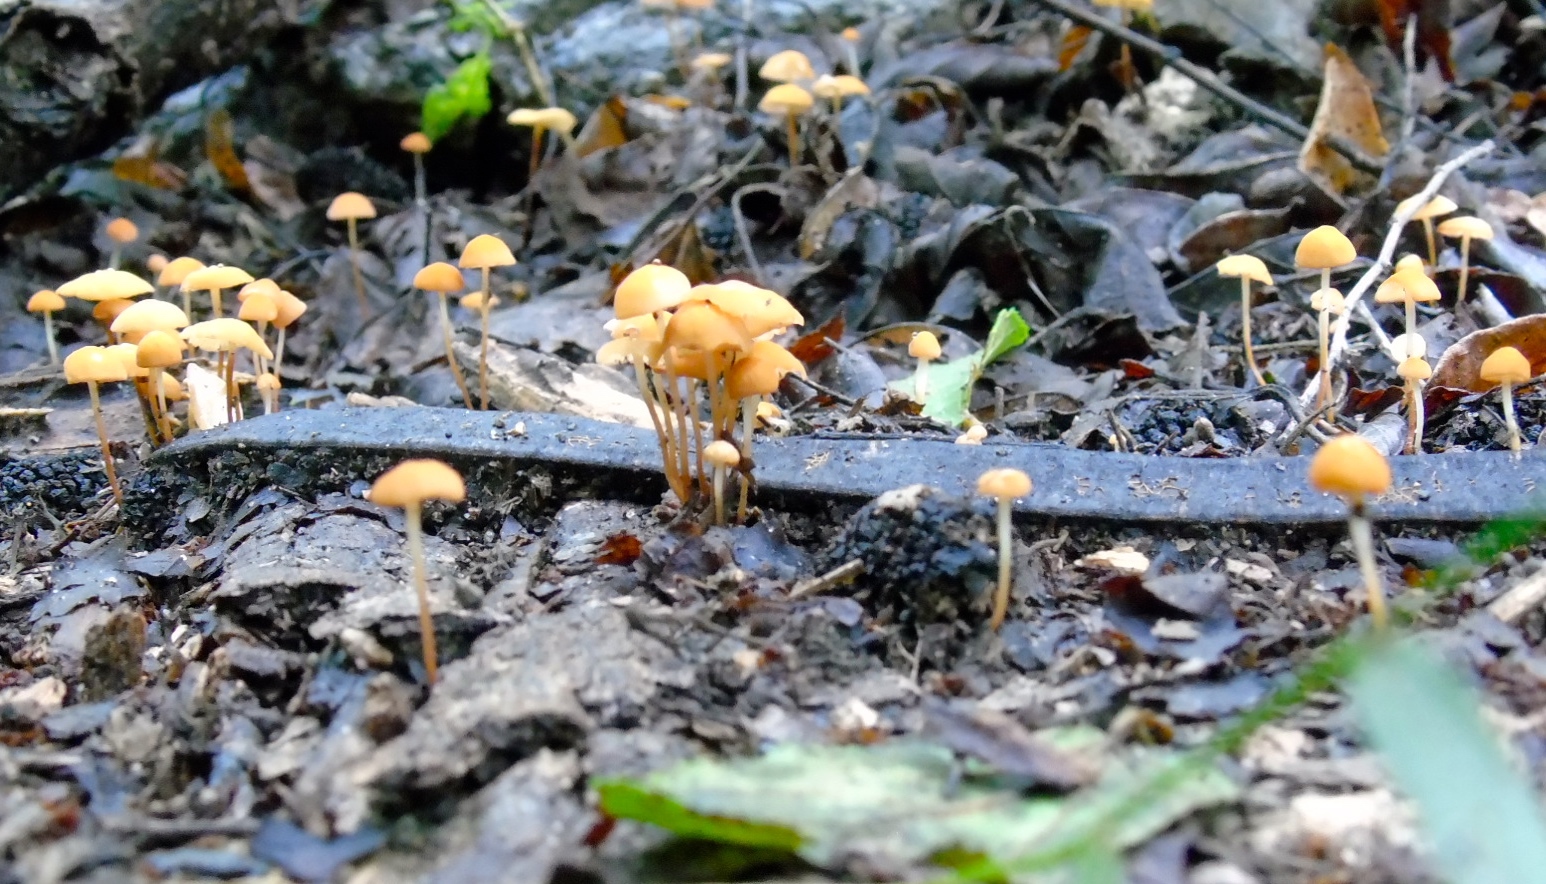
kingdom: Fungi
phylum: Basidiomycota
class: Agaricomycetes
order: Agaricales
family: Marasmiaceae
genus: Marasmius
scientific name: Marasmius
